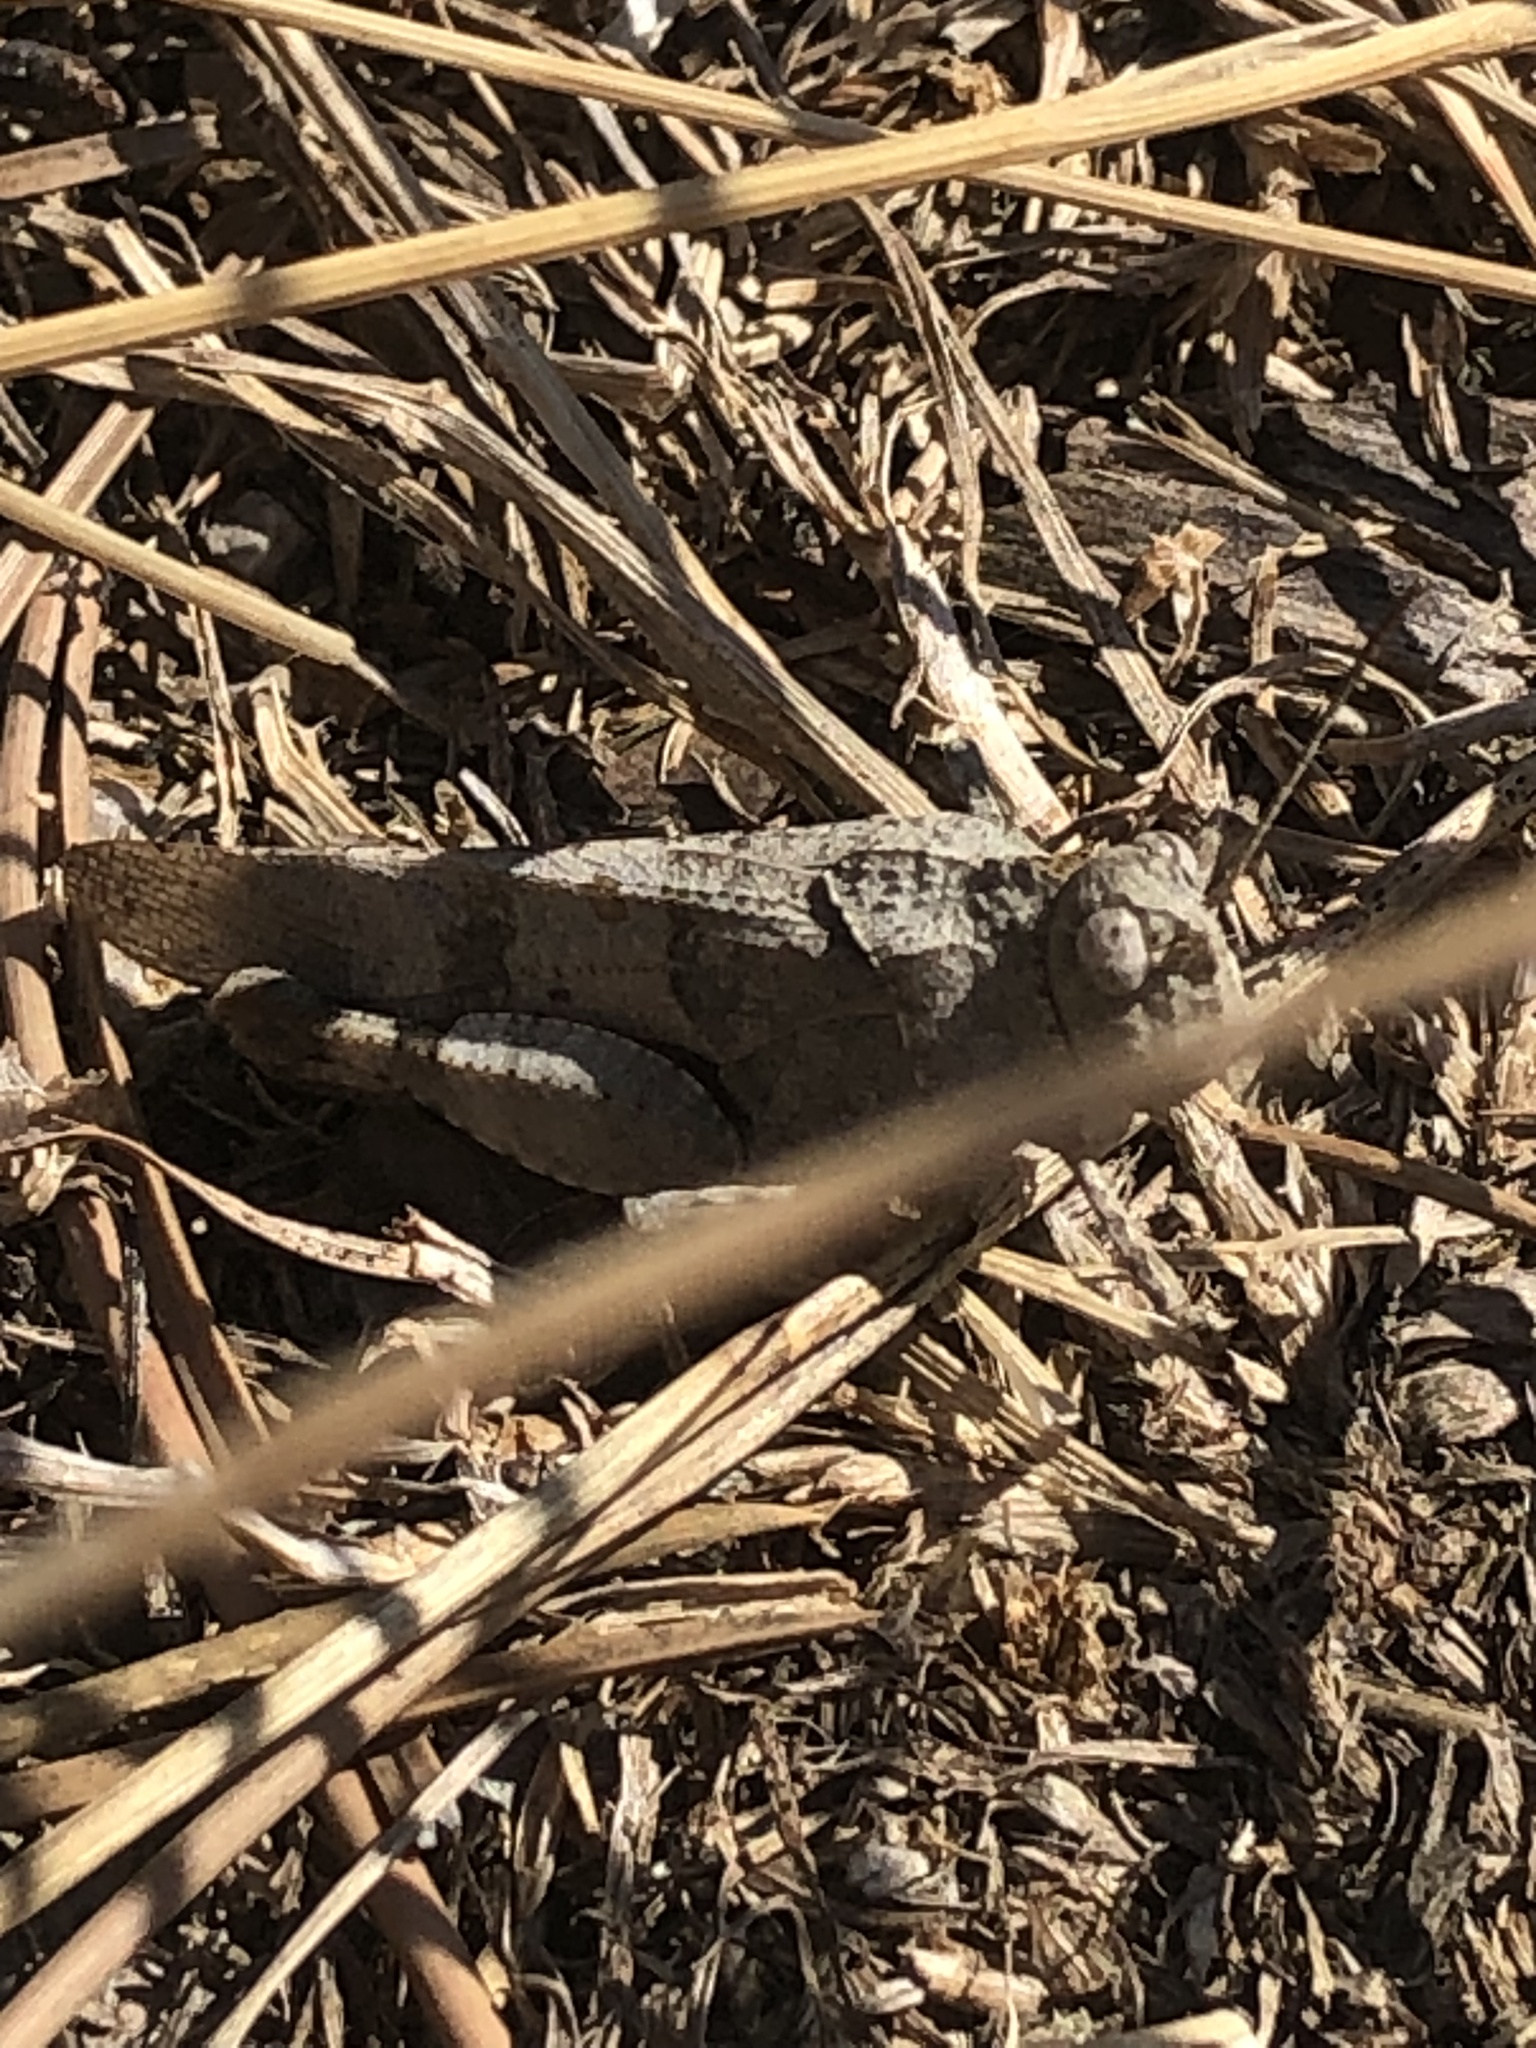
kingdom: Animalia
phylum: Arthropoda
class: Insecta
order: Orthoptera
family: Acrididae
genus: Oedipoda
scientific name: Oedipoda caerulescens
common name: Blue-winged grasshopper
